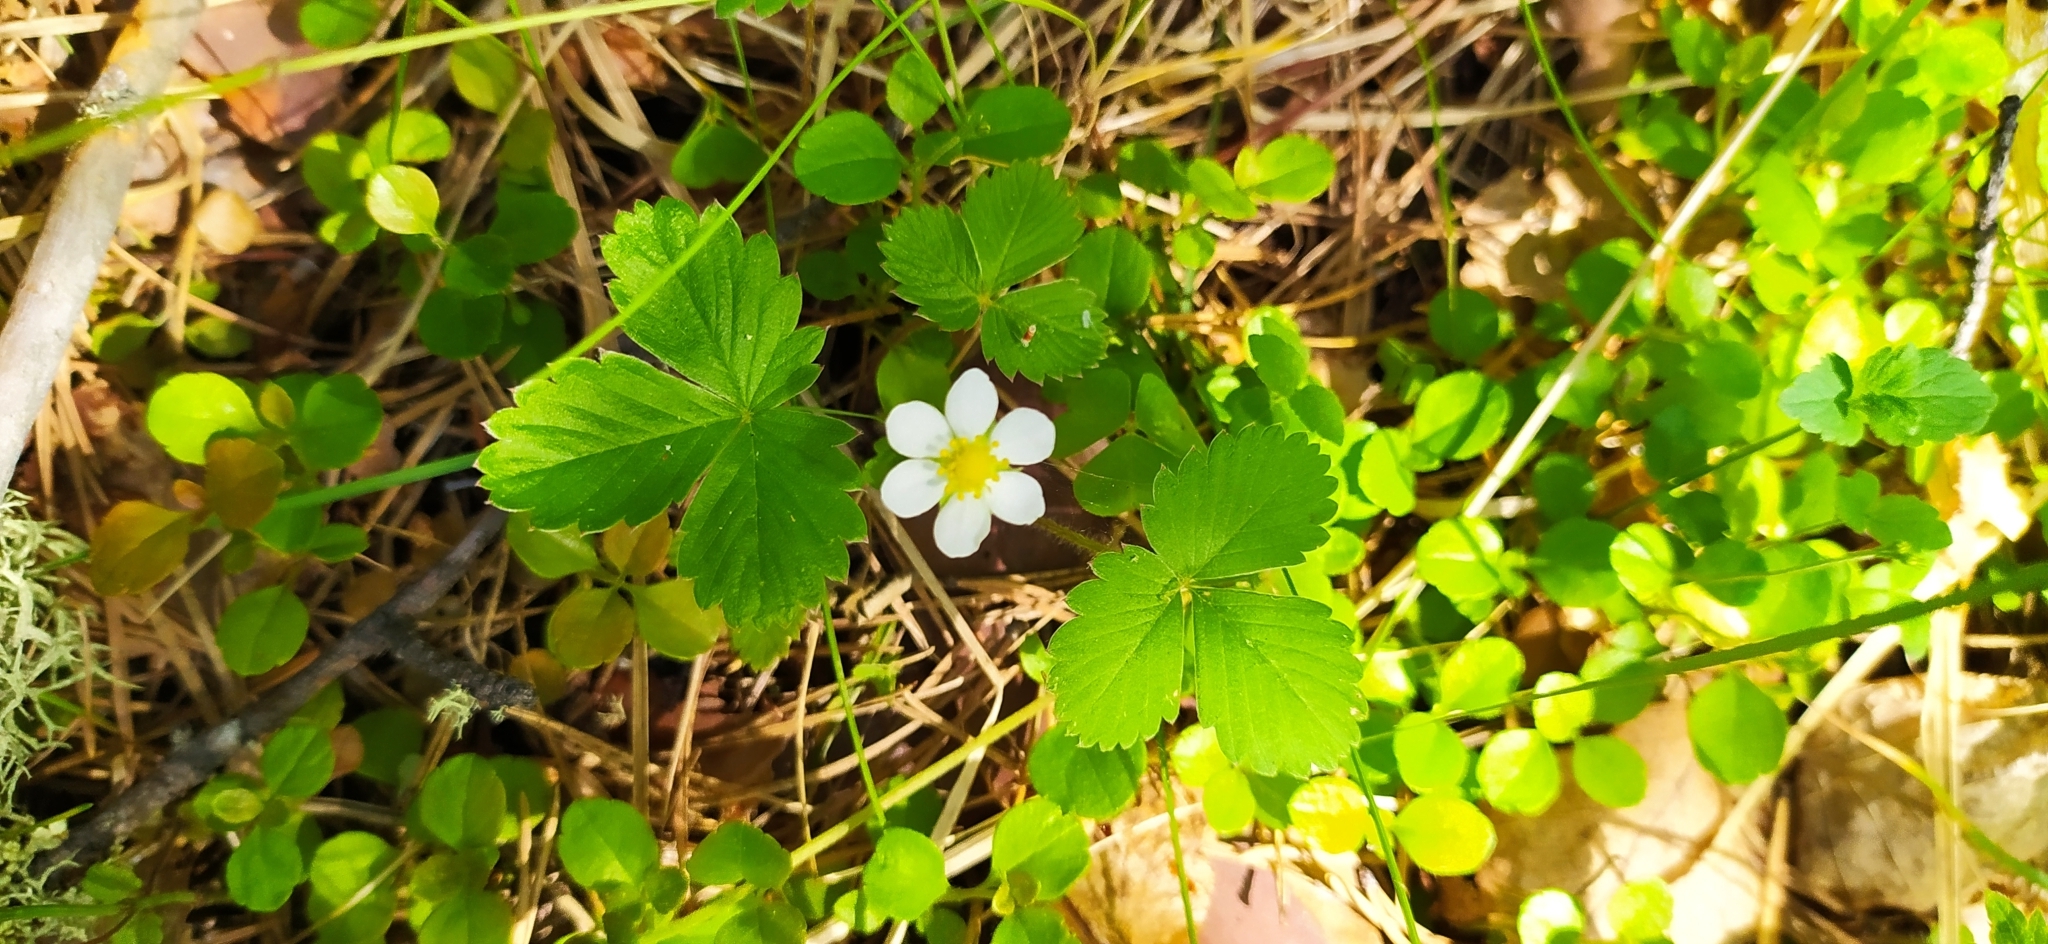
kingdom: Plantae
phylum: Tracheophyta
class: Magnoliopsida
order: Rosales
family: Rosaceae
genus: Fragaria
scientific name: Fragaria vesca
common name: Wild strawberry
